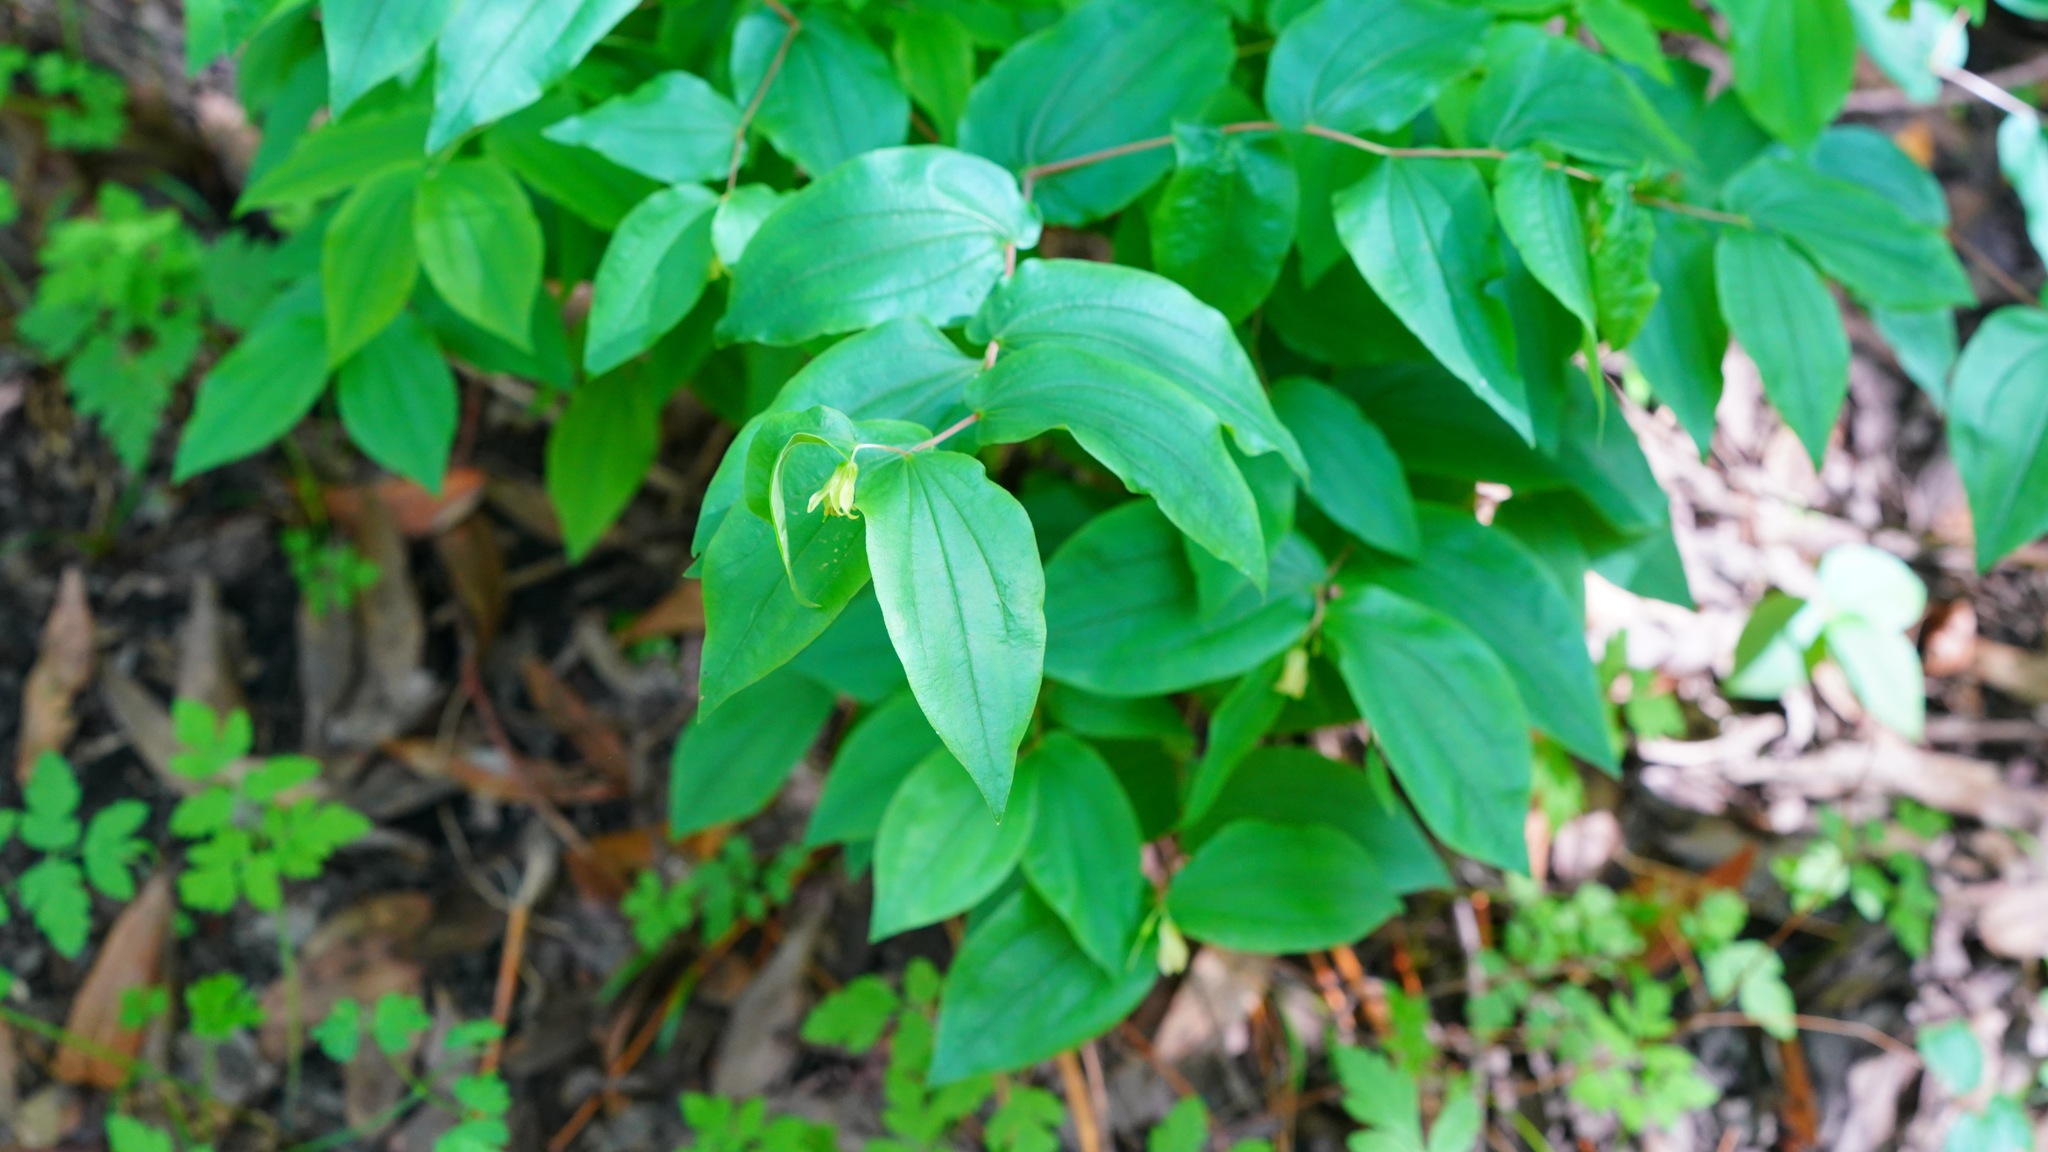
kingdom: Plantae
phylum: Tracheophyta
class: Liliopsida
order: Liliales
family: Liliaceae
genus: Prosartes
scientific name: Prosartes hookeri
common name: Fairy-bells
